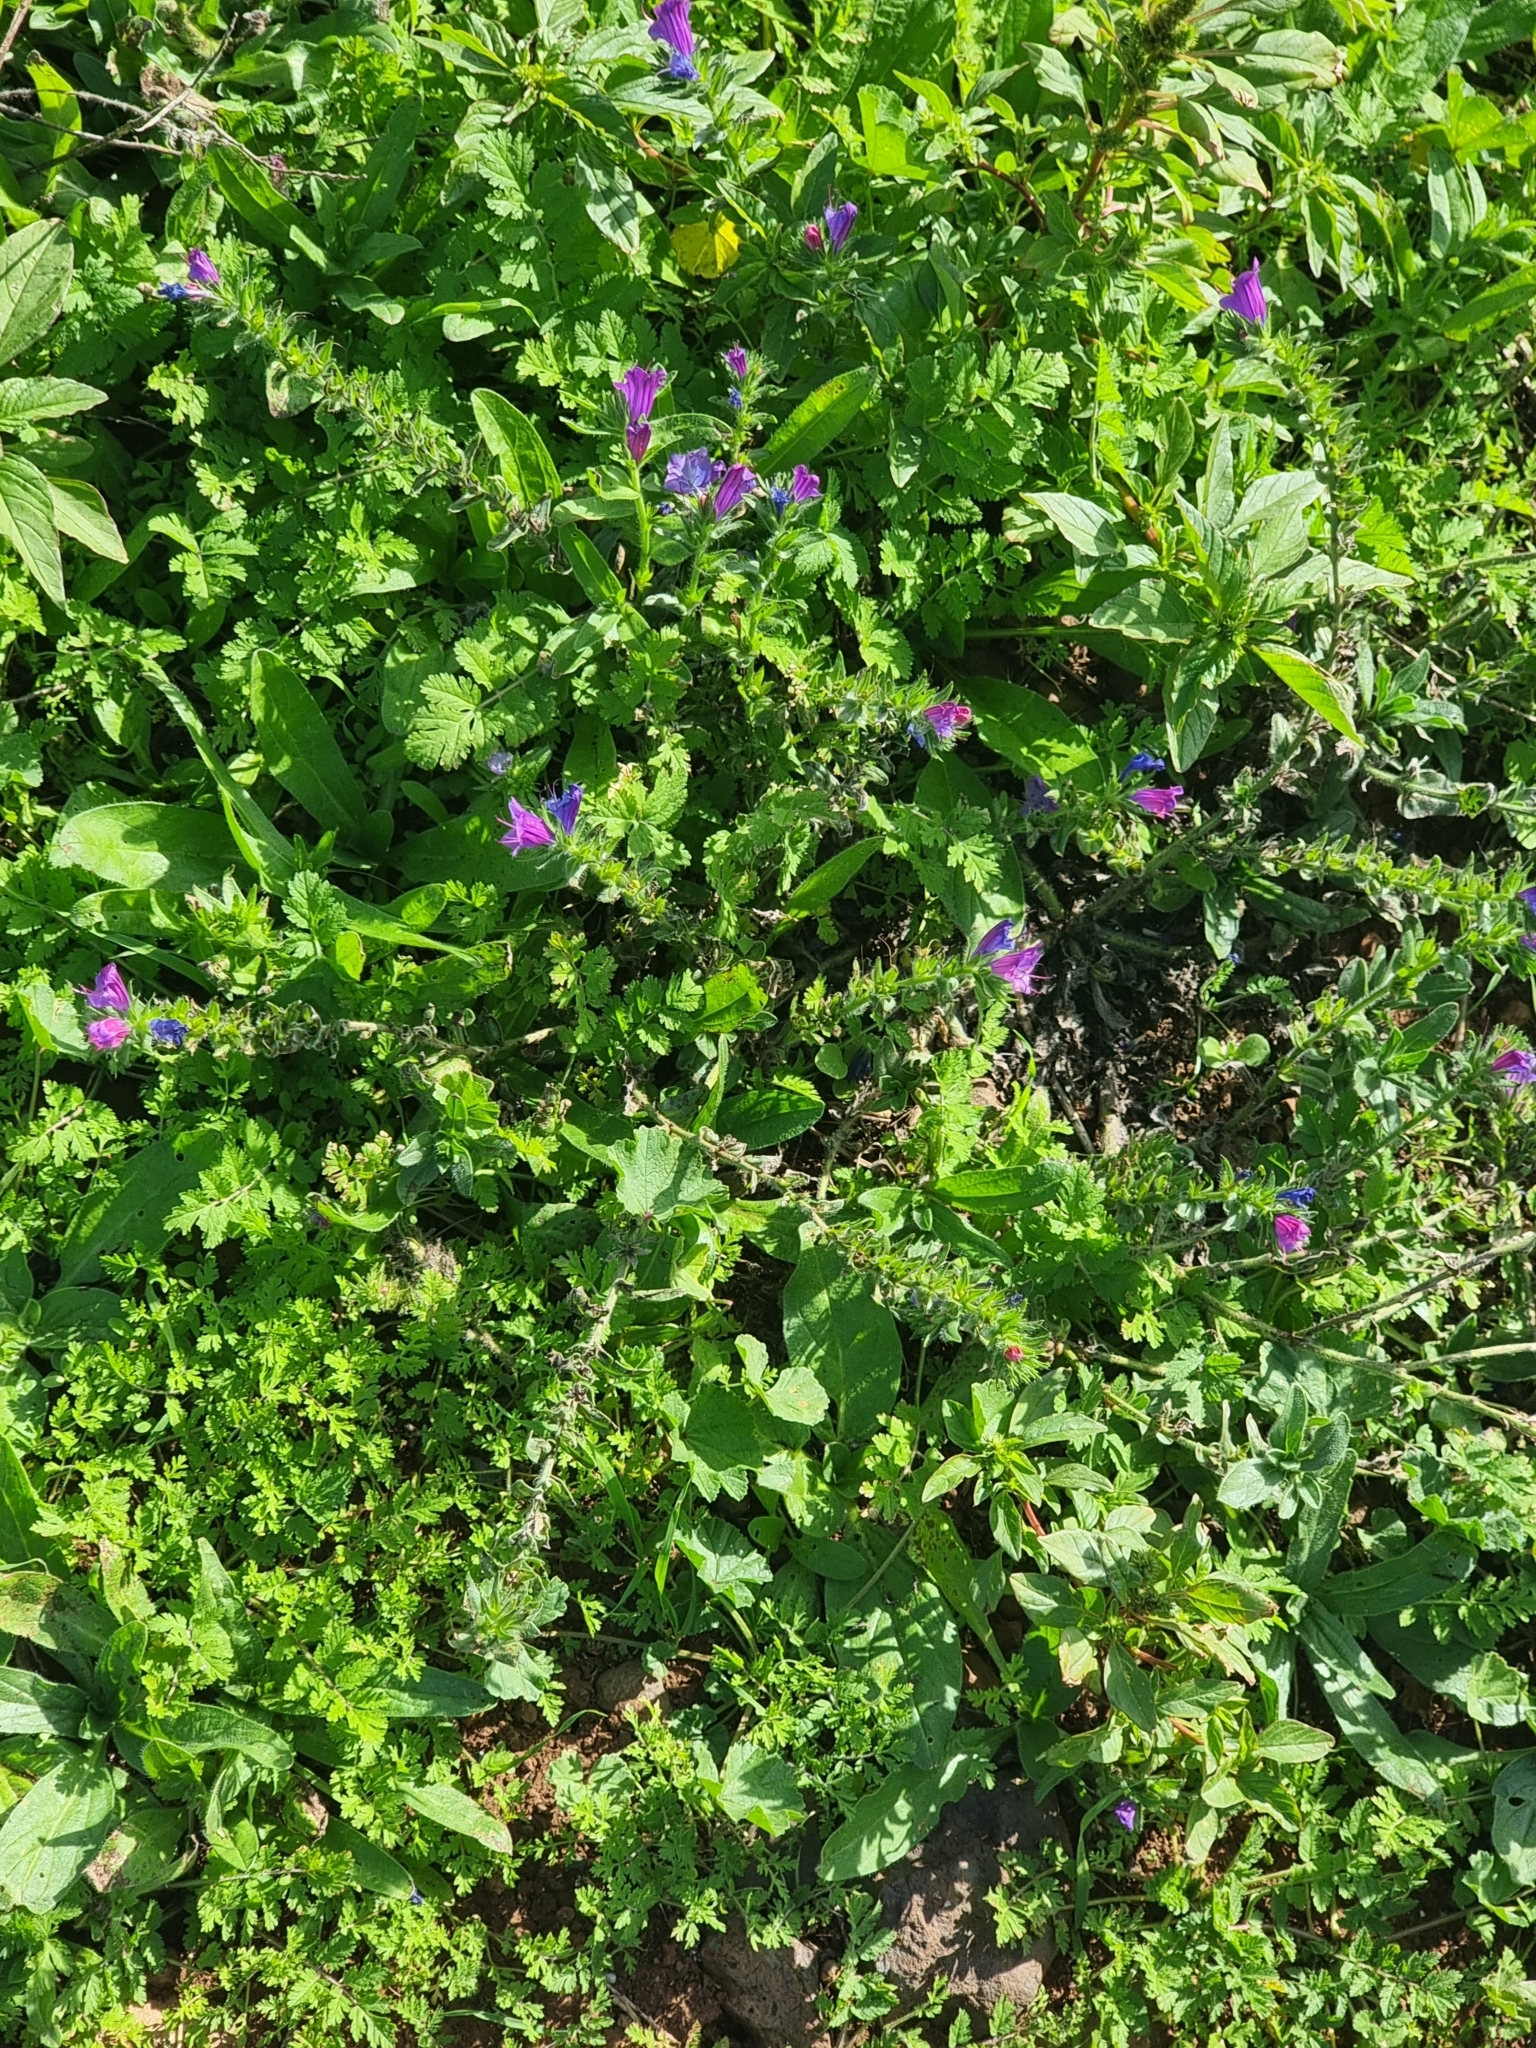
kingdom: Plantae
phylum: Tracheophyta
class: Magnoliopsida
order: Boraginales
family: Boraginaceae
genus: Echium
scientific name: Echium plantagineum
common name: Purple viper's-bugloss
